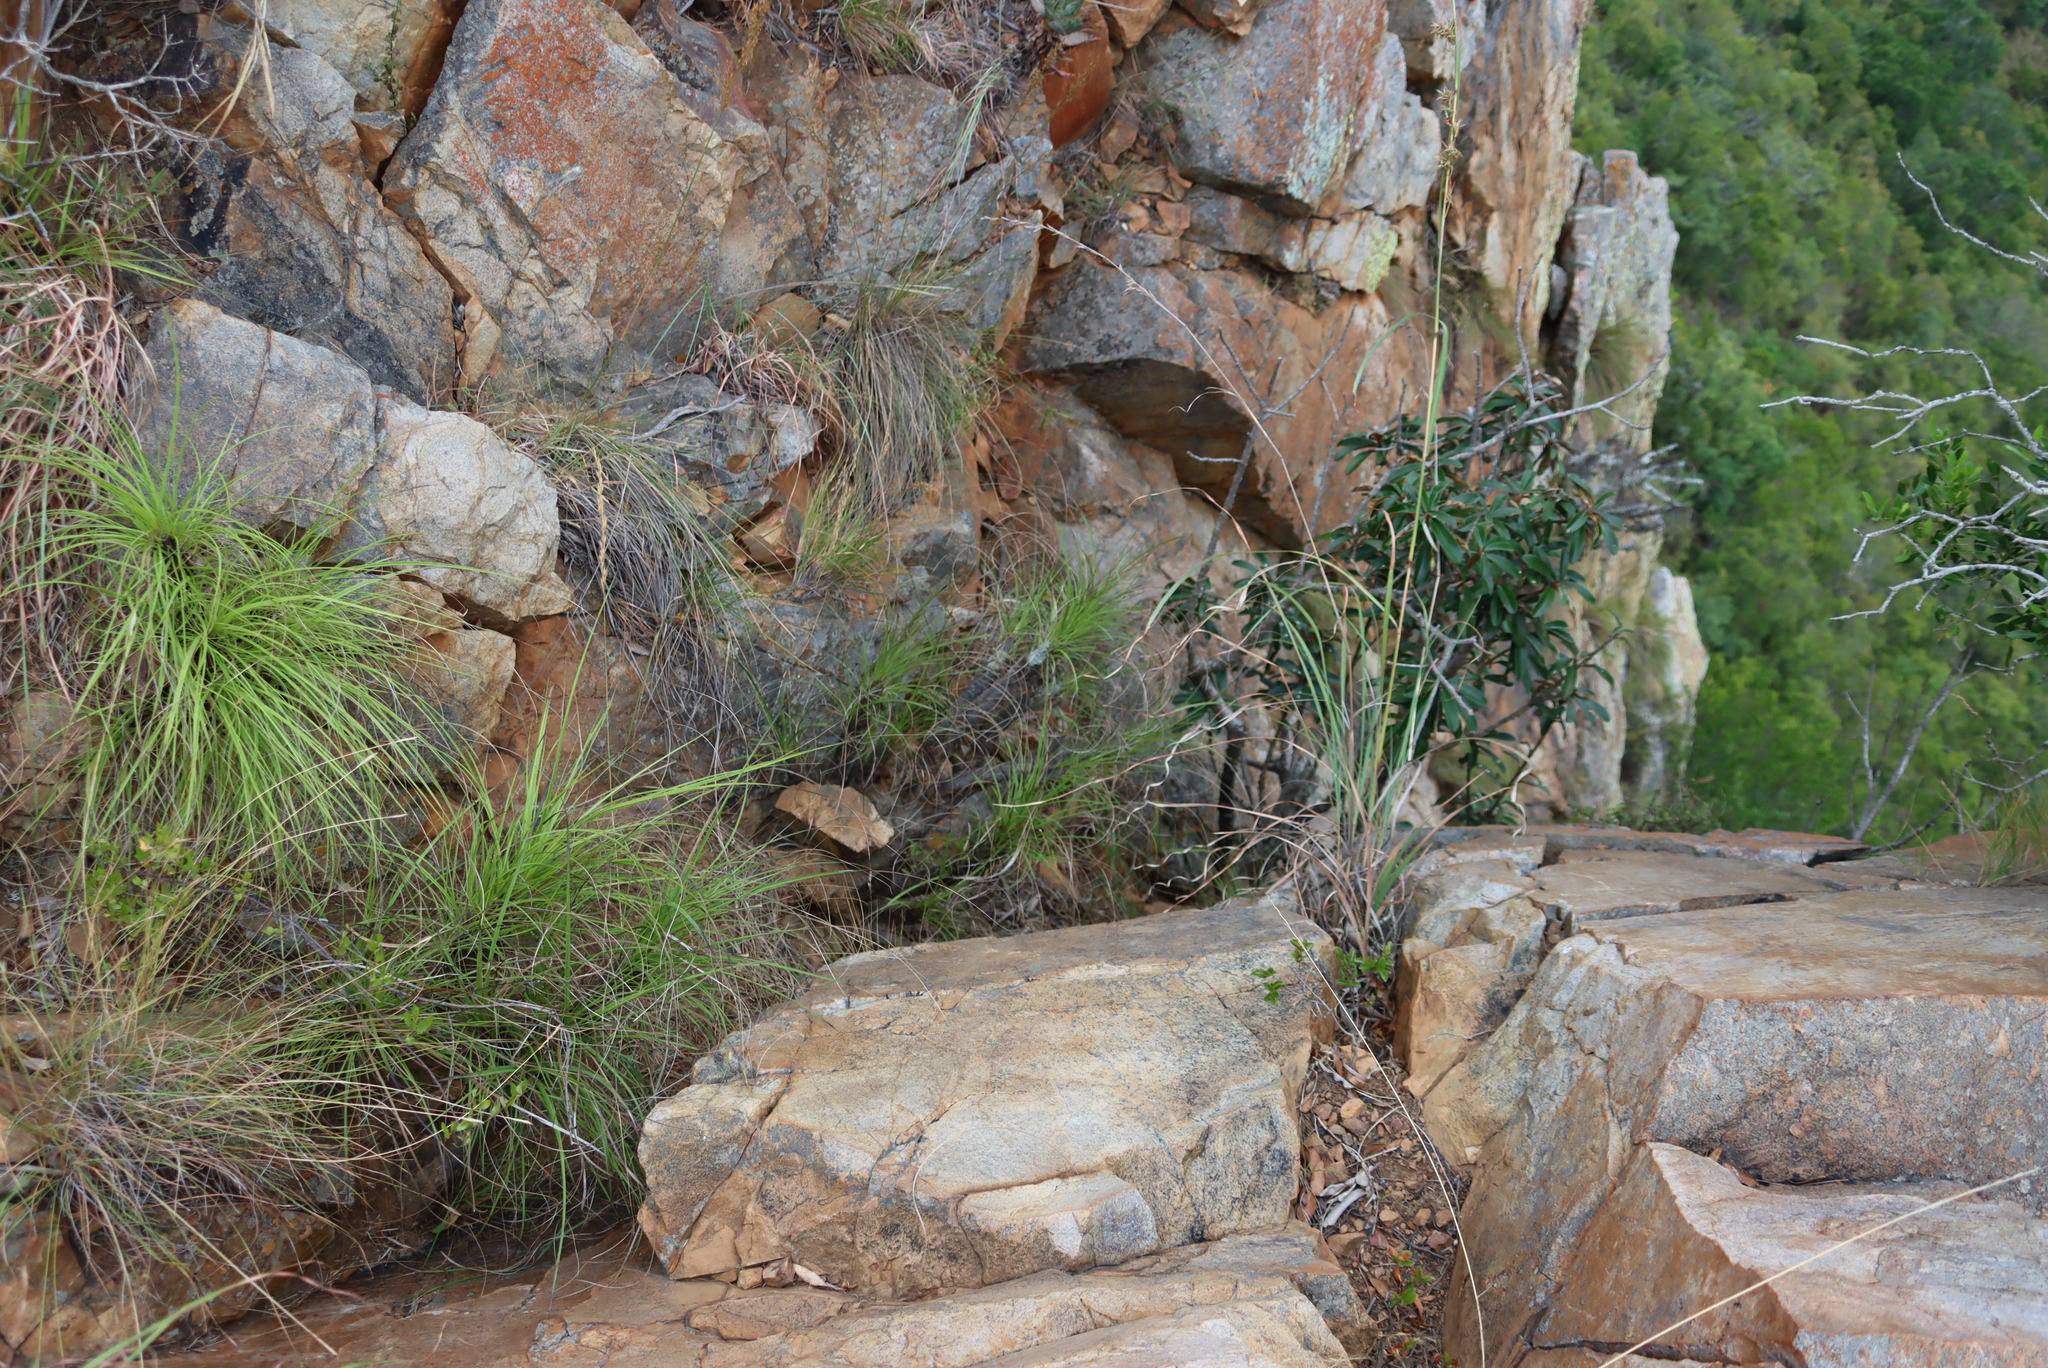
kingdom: Plantae
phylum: Tracheophyta
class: Liliopsida
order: Pandanales
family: Velloziaceae
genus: Xerophyta
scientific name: Xerophyta retinervis
